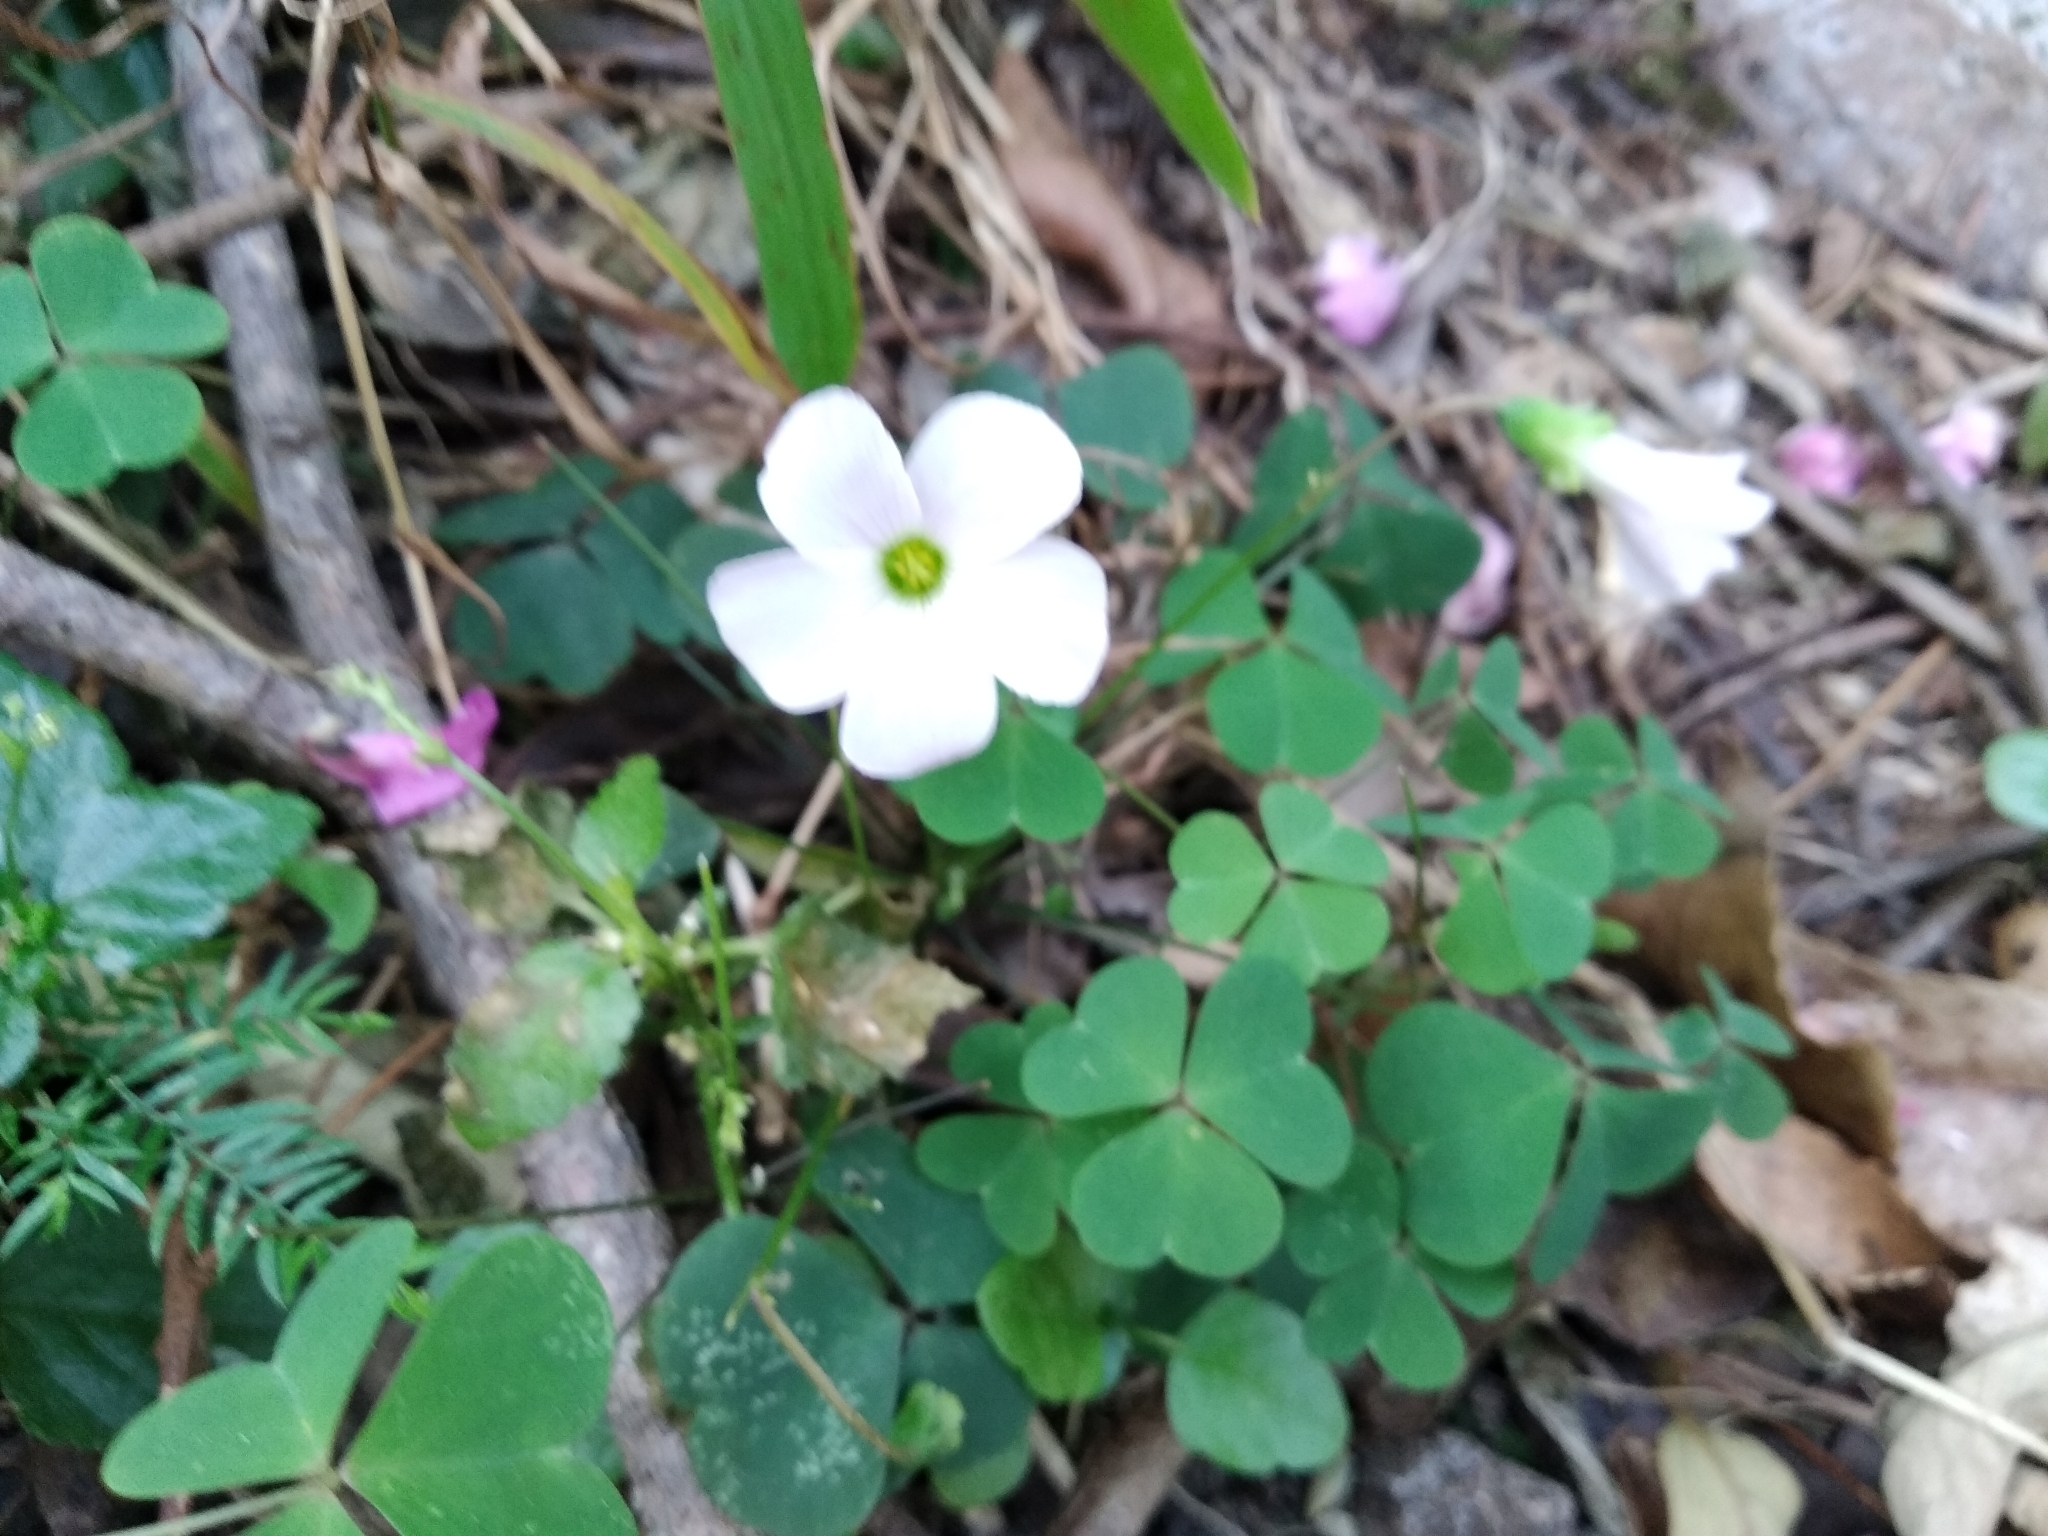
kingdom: Plantae
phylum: Tracheophyta
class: Magnoliopsida
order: Oxalidales
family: Oxalidaceae
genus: Oxalis
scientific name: Oxalis incarnata
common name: Pale pink-sorrel
